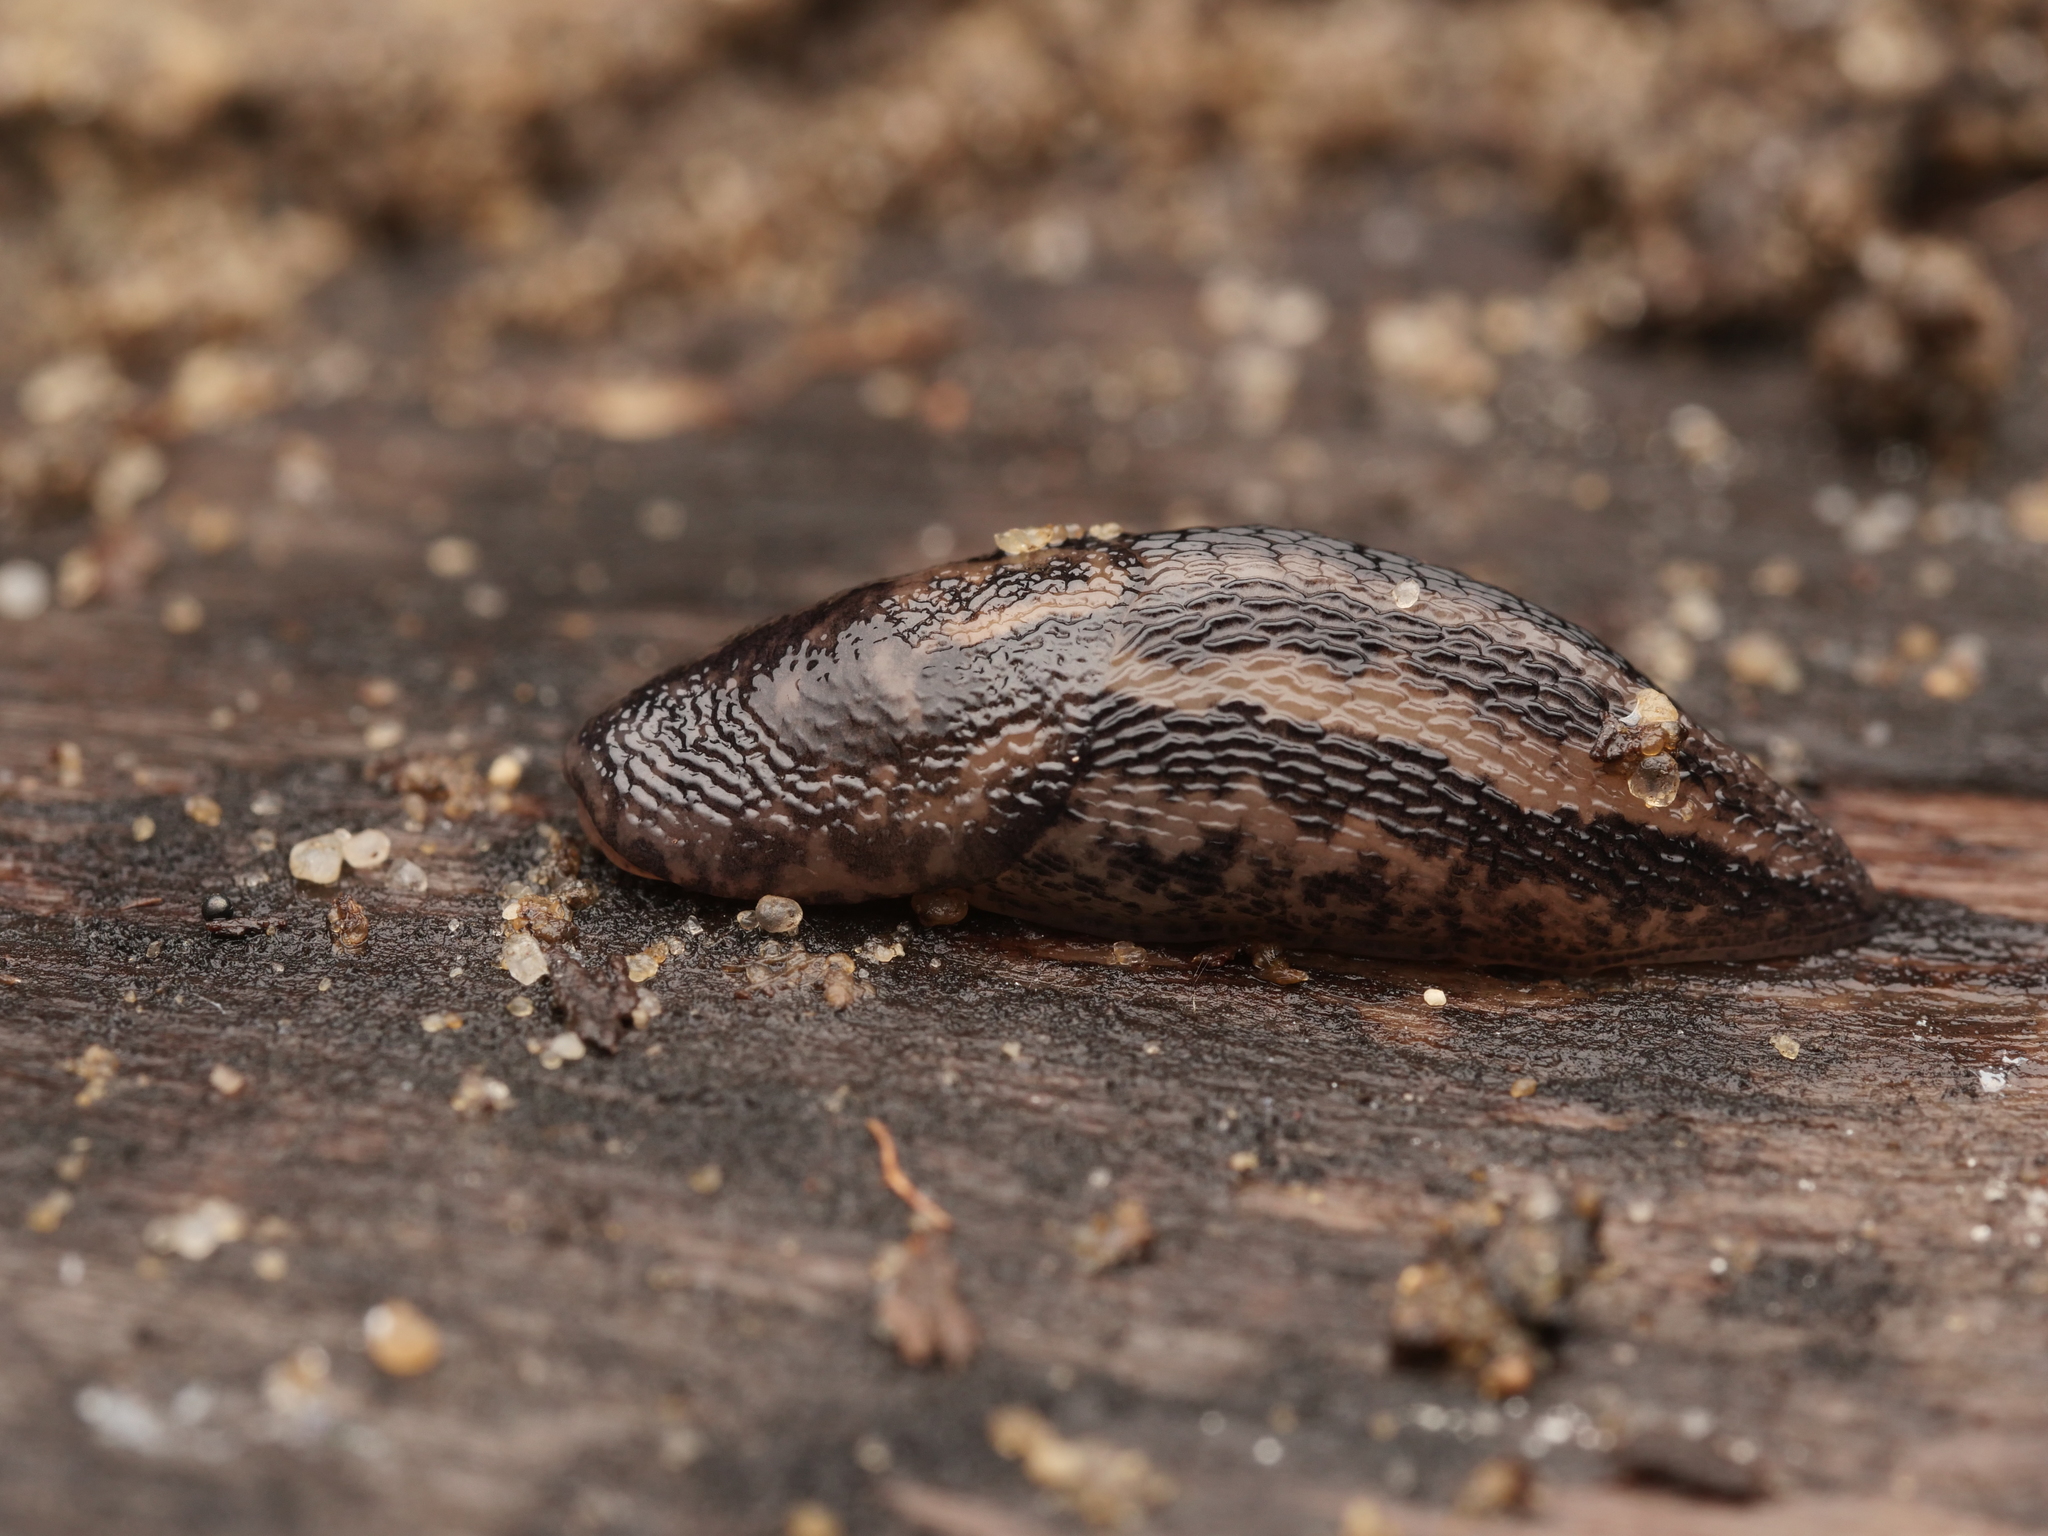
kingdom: Animalia
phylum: Mollusca
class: Gastropoda
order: Stylommatophora
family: Limacidae
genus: Limax
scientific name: Limax maximus
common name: Great grey slug
